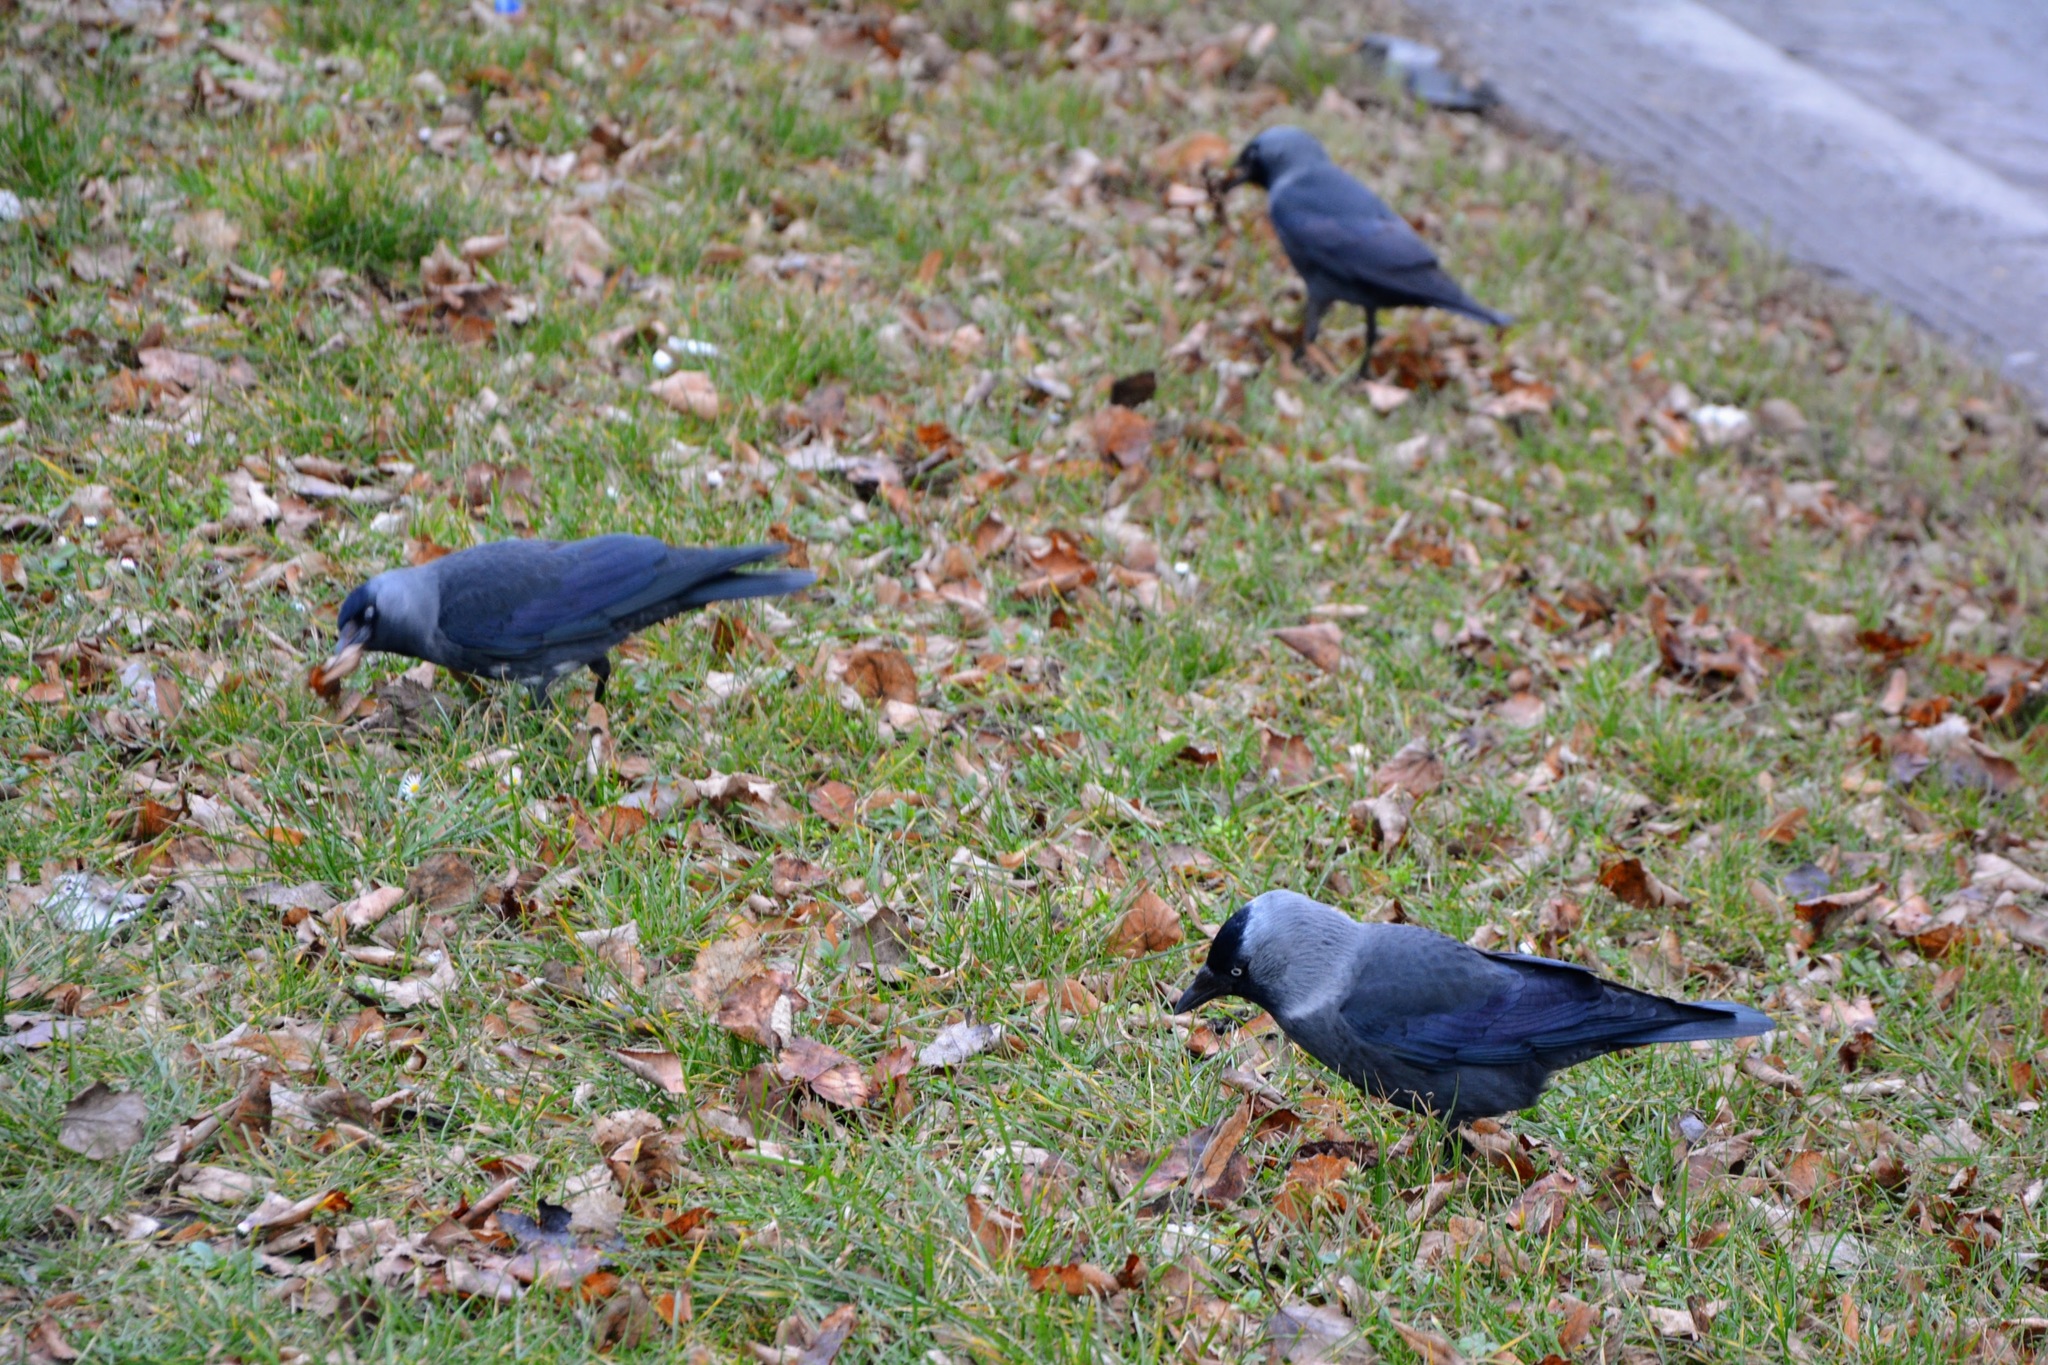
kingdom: Animalia
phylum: Chordata
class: Aves
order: Passeriformes
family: Corvidae
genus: Coloeus
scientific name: Coloeus monedula
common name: Western jackdaw
